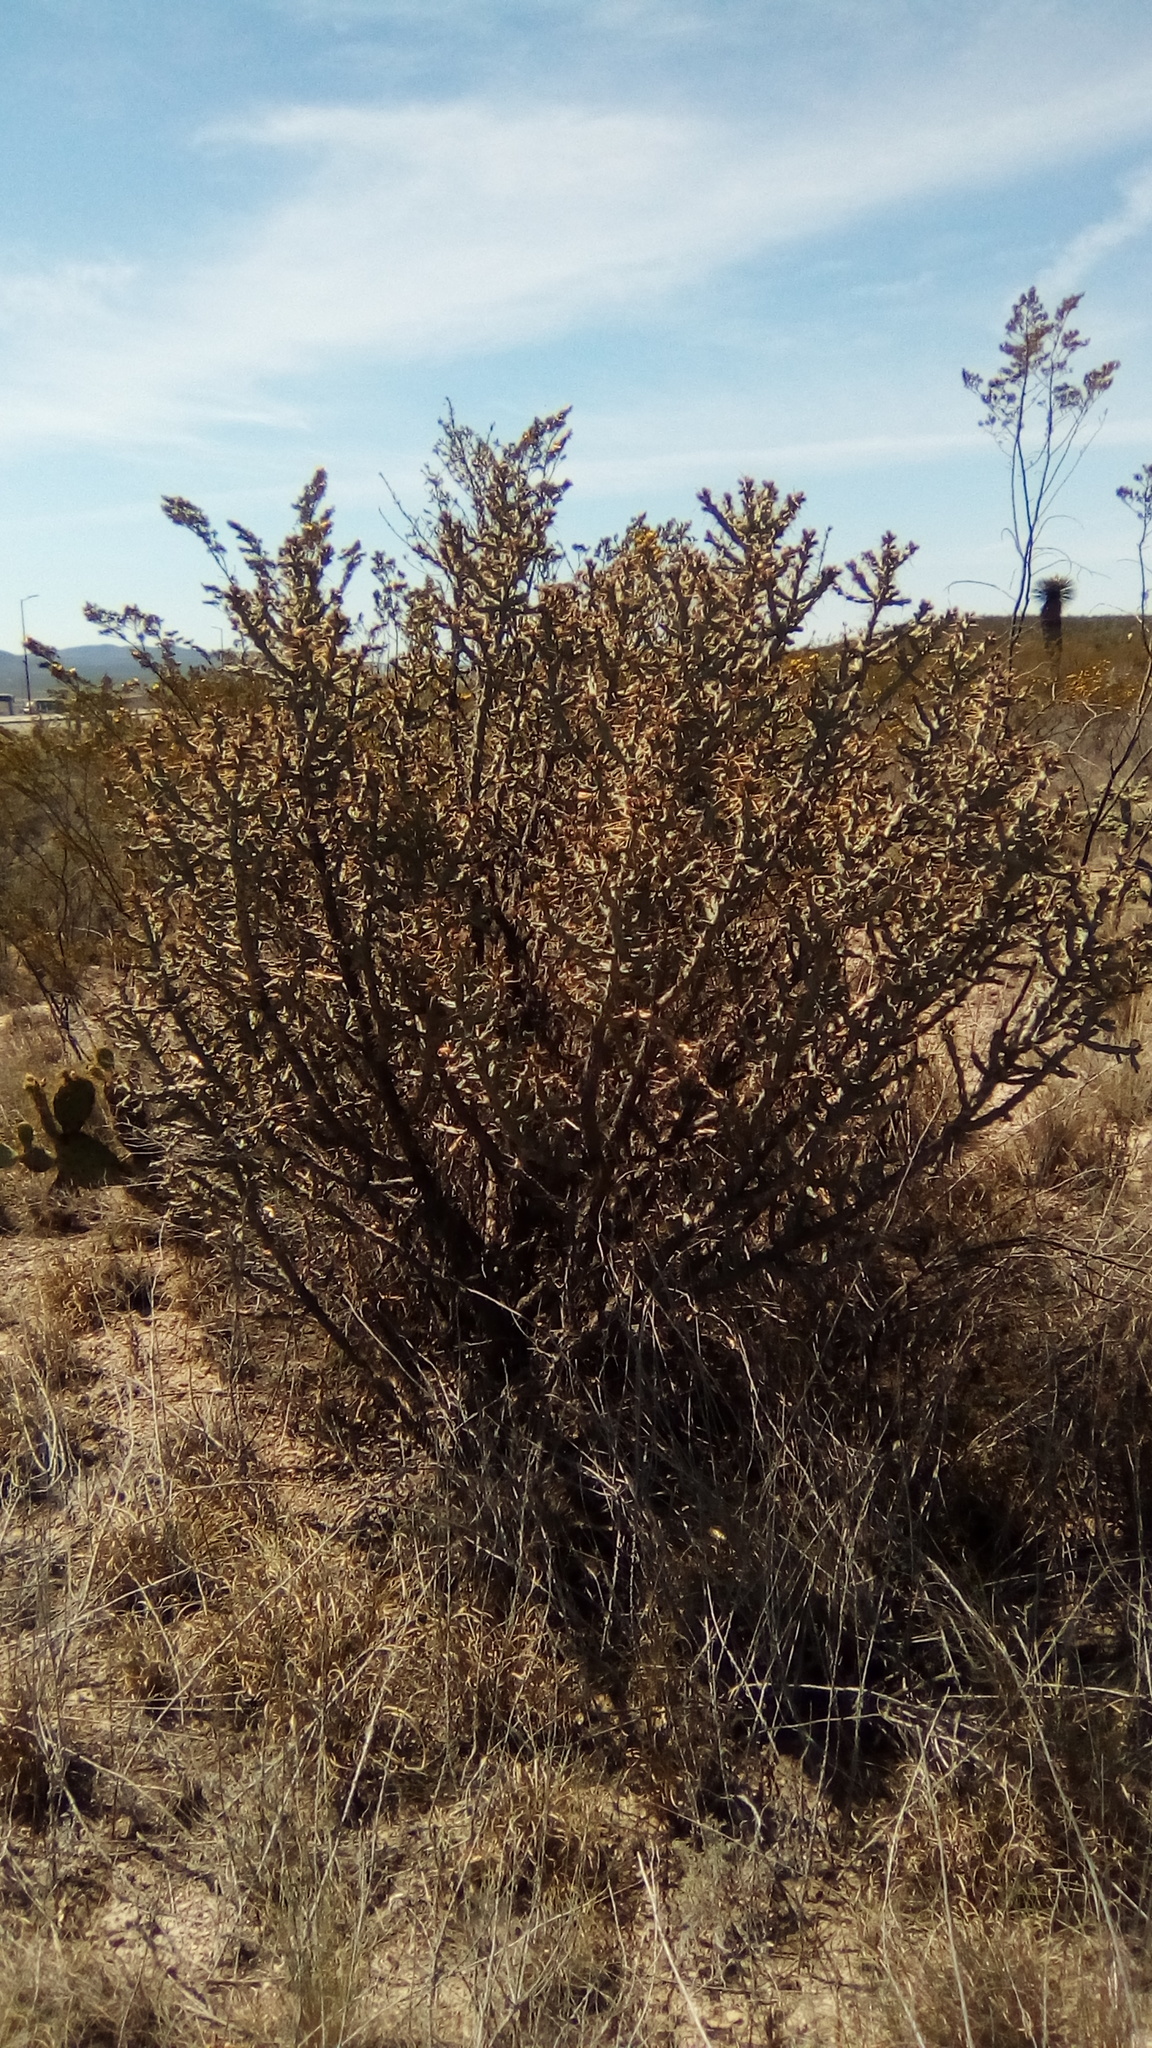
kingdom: Plantae
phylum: Tracheophyta
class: Magnoliopsida
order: Caryophyllales
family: Cactaceae
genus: Cylindropuntia
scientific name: Cylindropuntia kleiniae
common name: Klein's cholla
